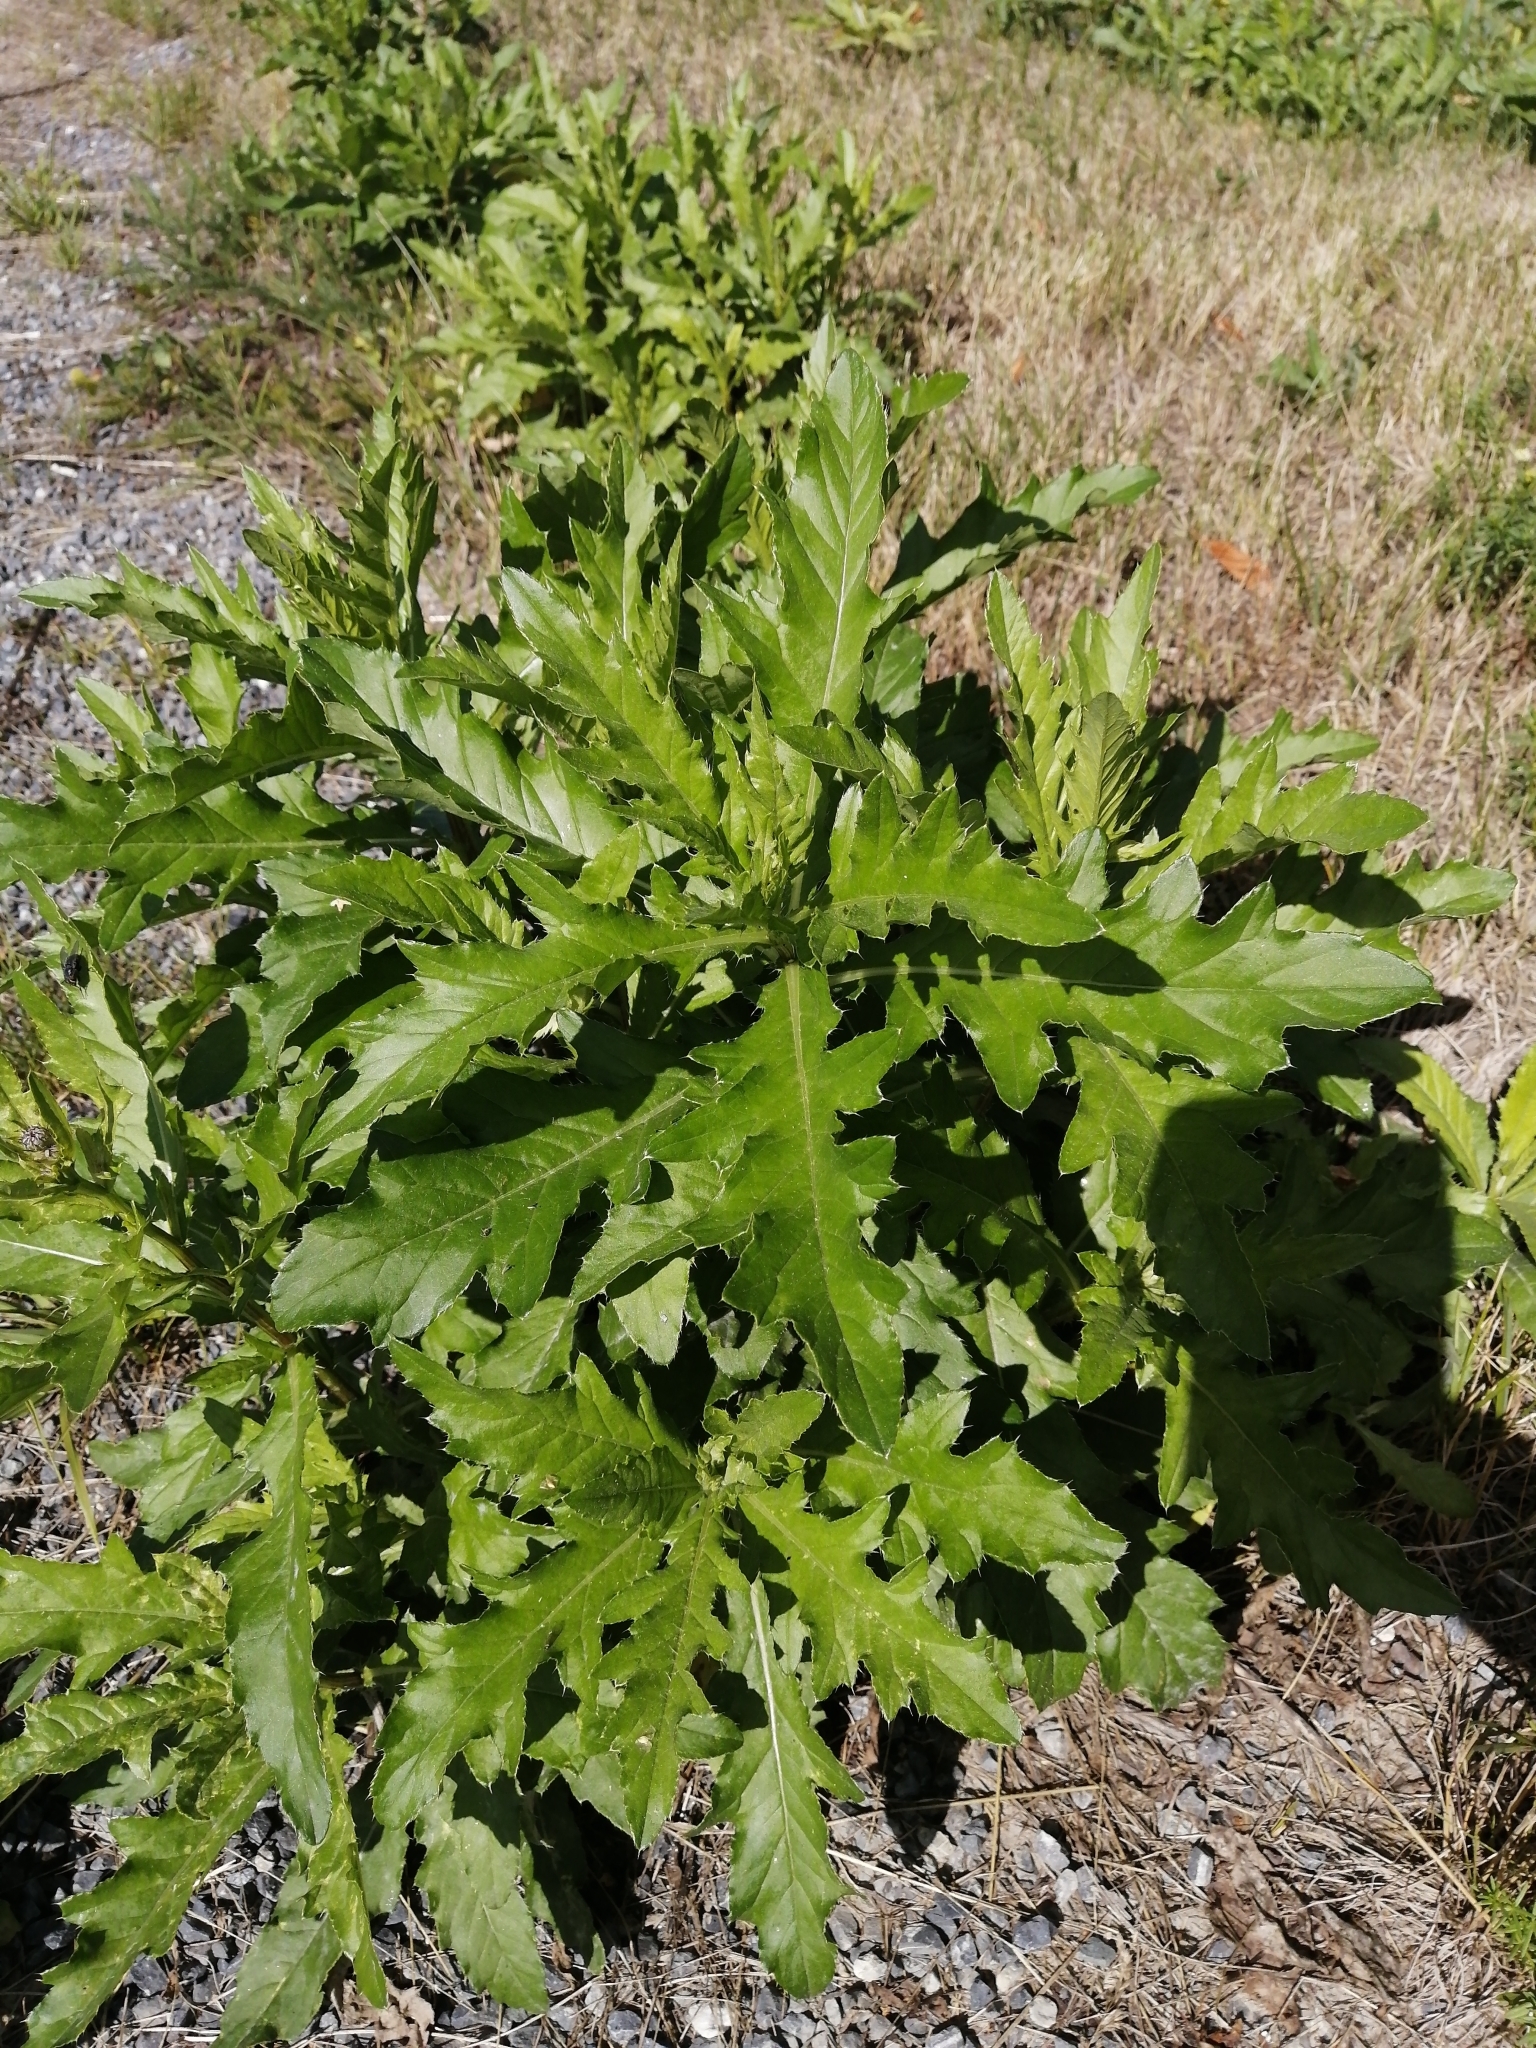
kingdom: Plantae
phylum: Tracheophyta
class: Magnoliopsida
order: Asterales
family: Asteraceae
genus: Cirsium
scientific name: Cirsium arvense
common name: Creeping thistle
